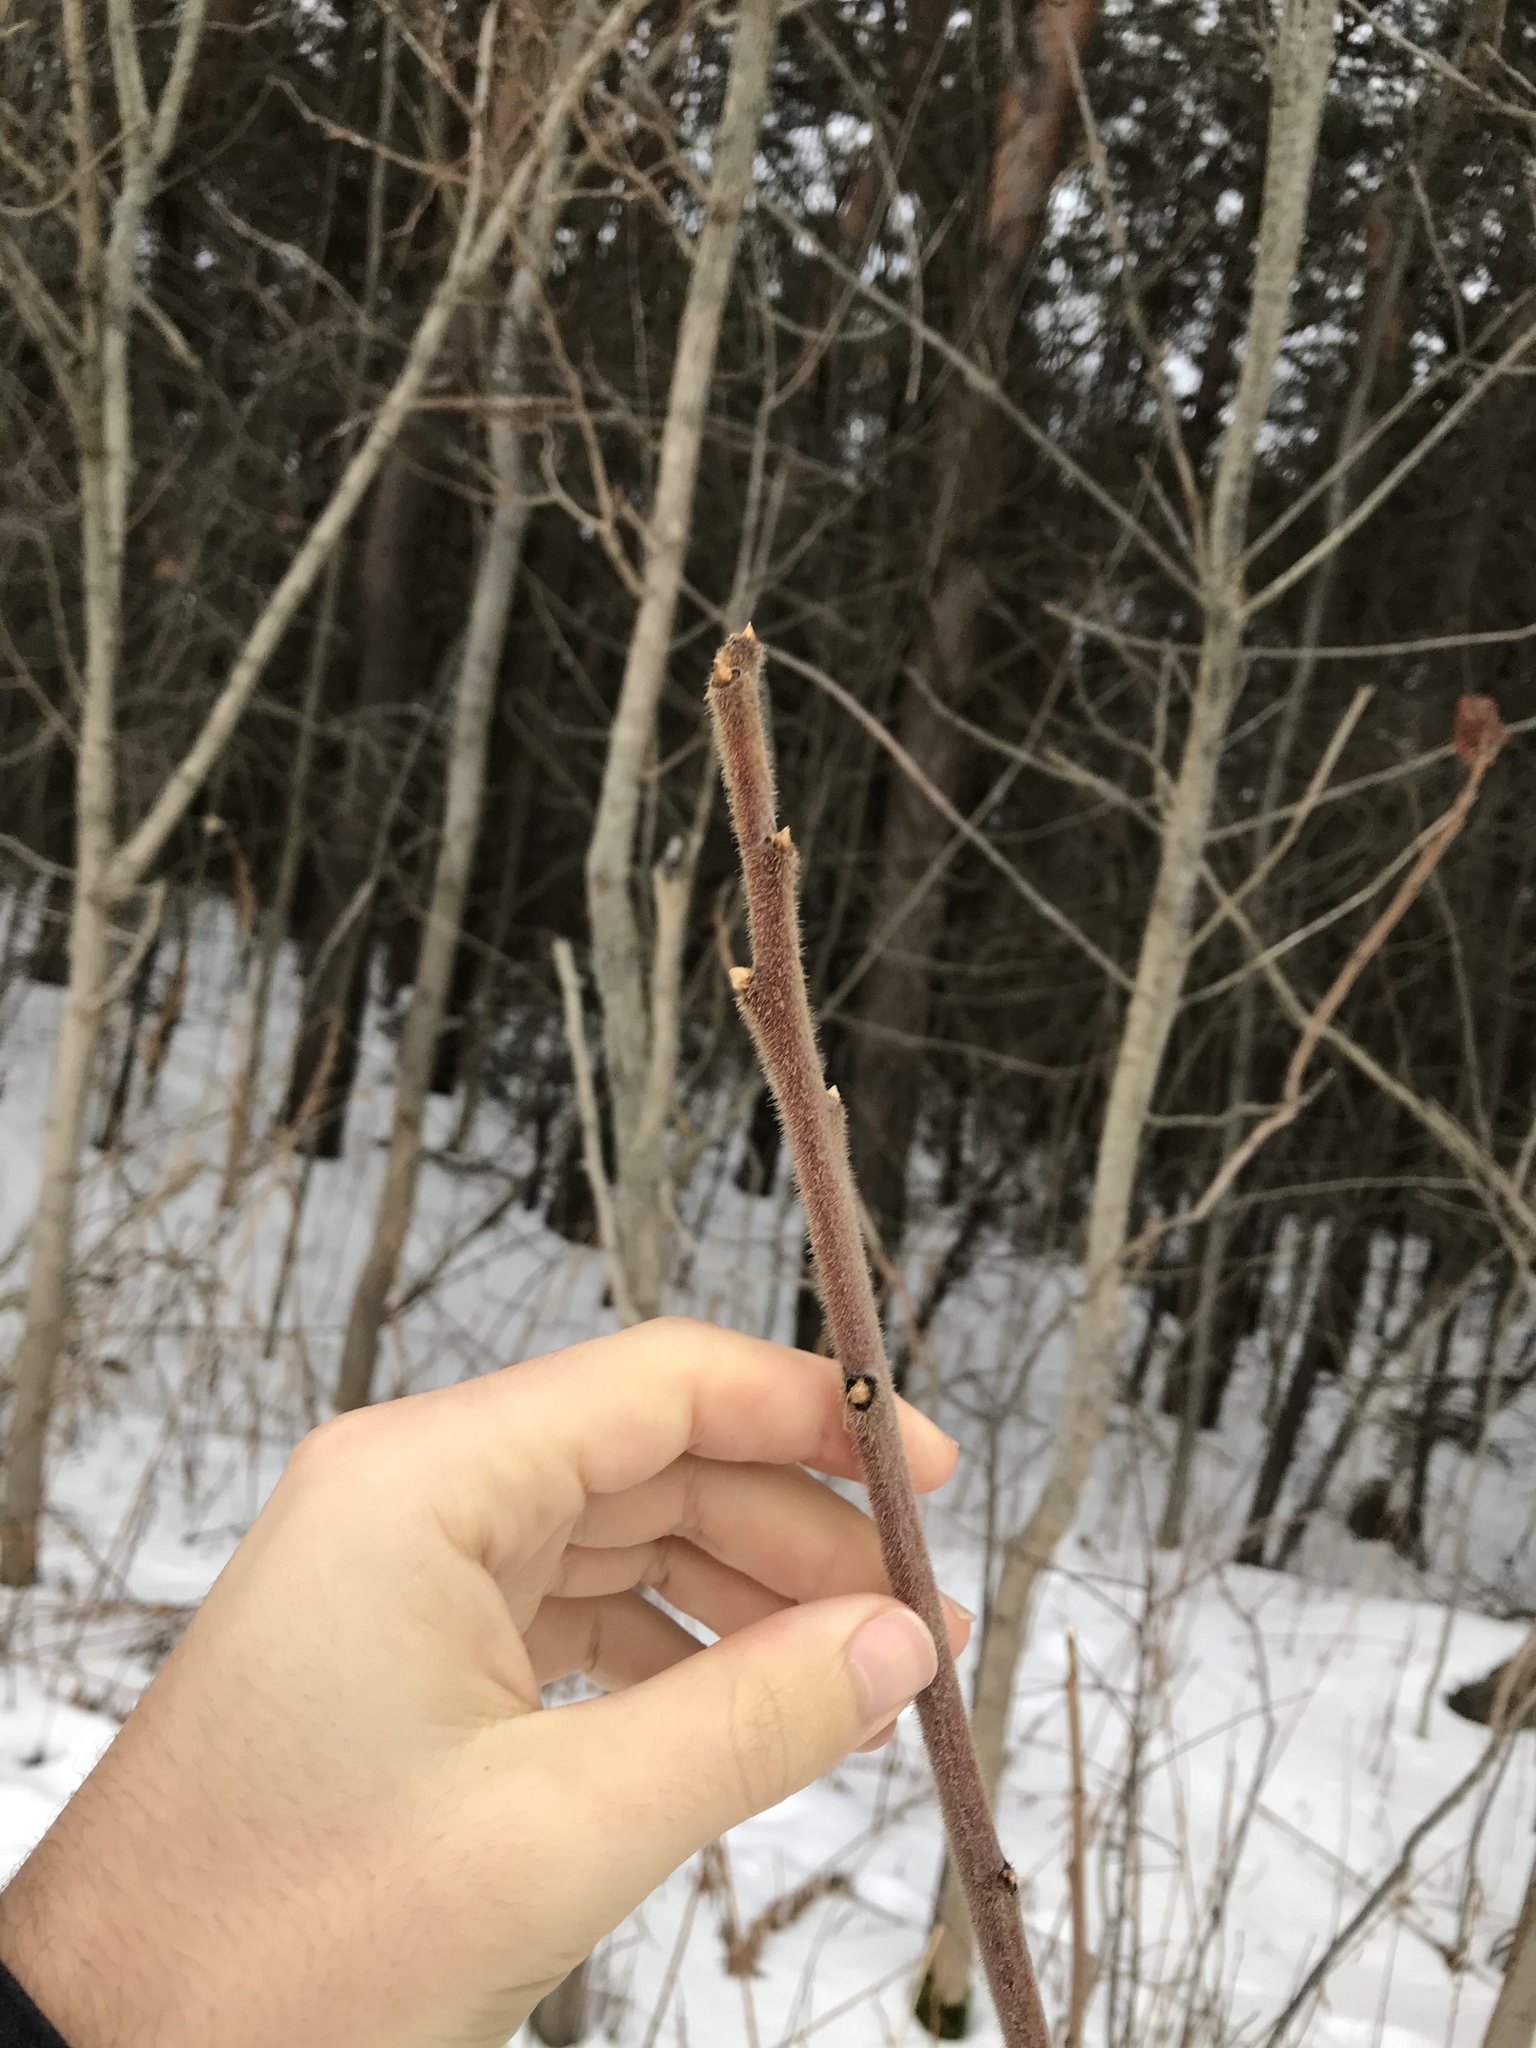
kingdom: Plantae
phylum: Tracheophyta
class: Magnoliopsida
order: Sapindales
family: Anacardiaceae
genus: Rhus
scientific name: Rhus typhina
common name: Staghorn sumac
